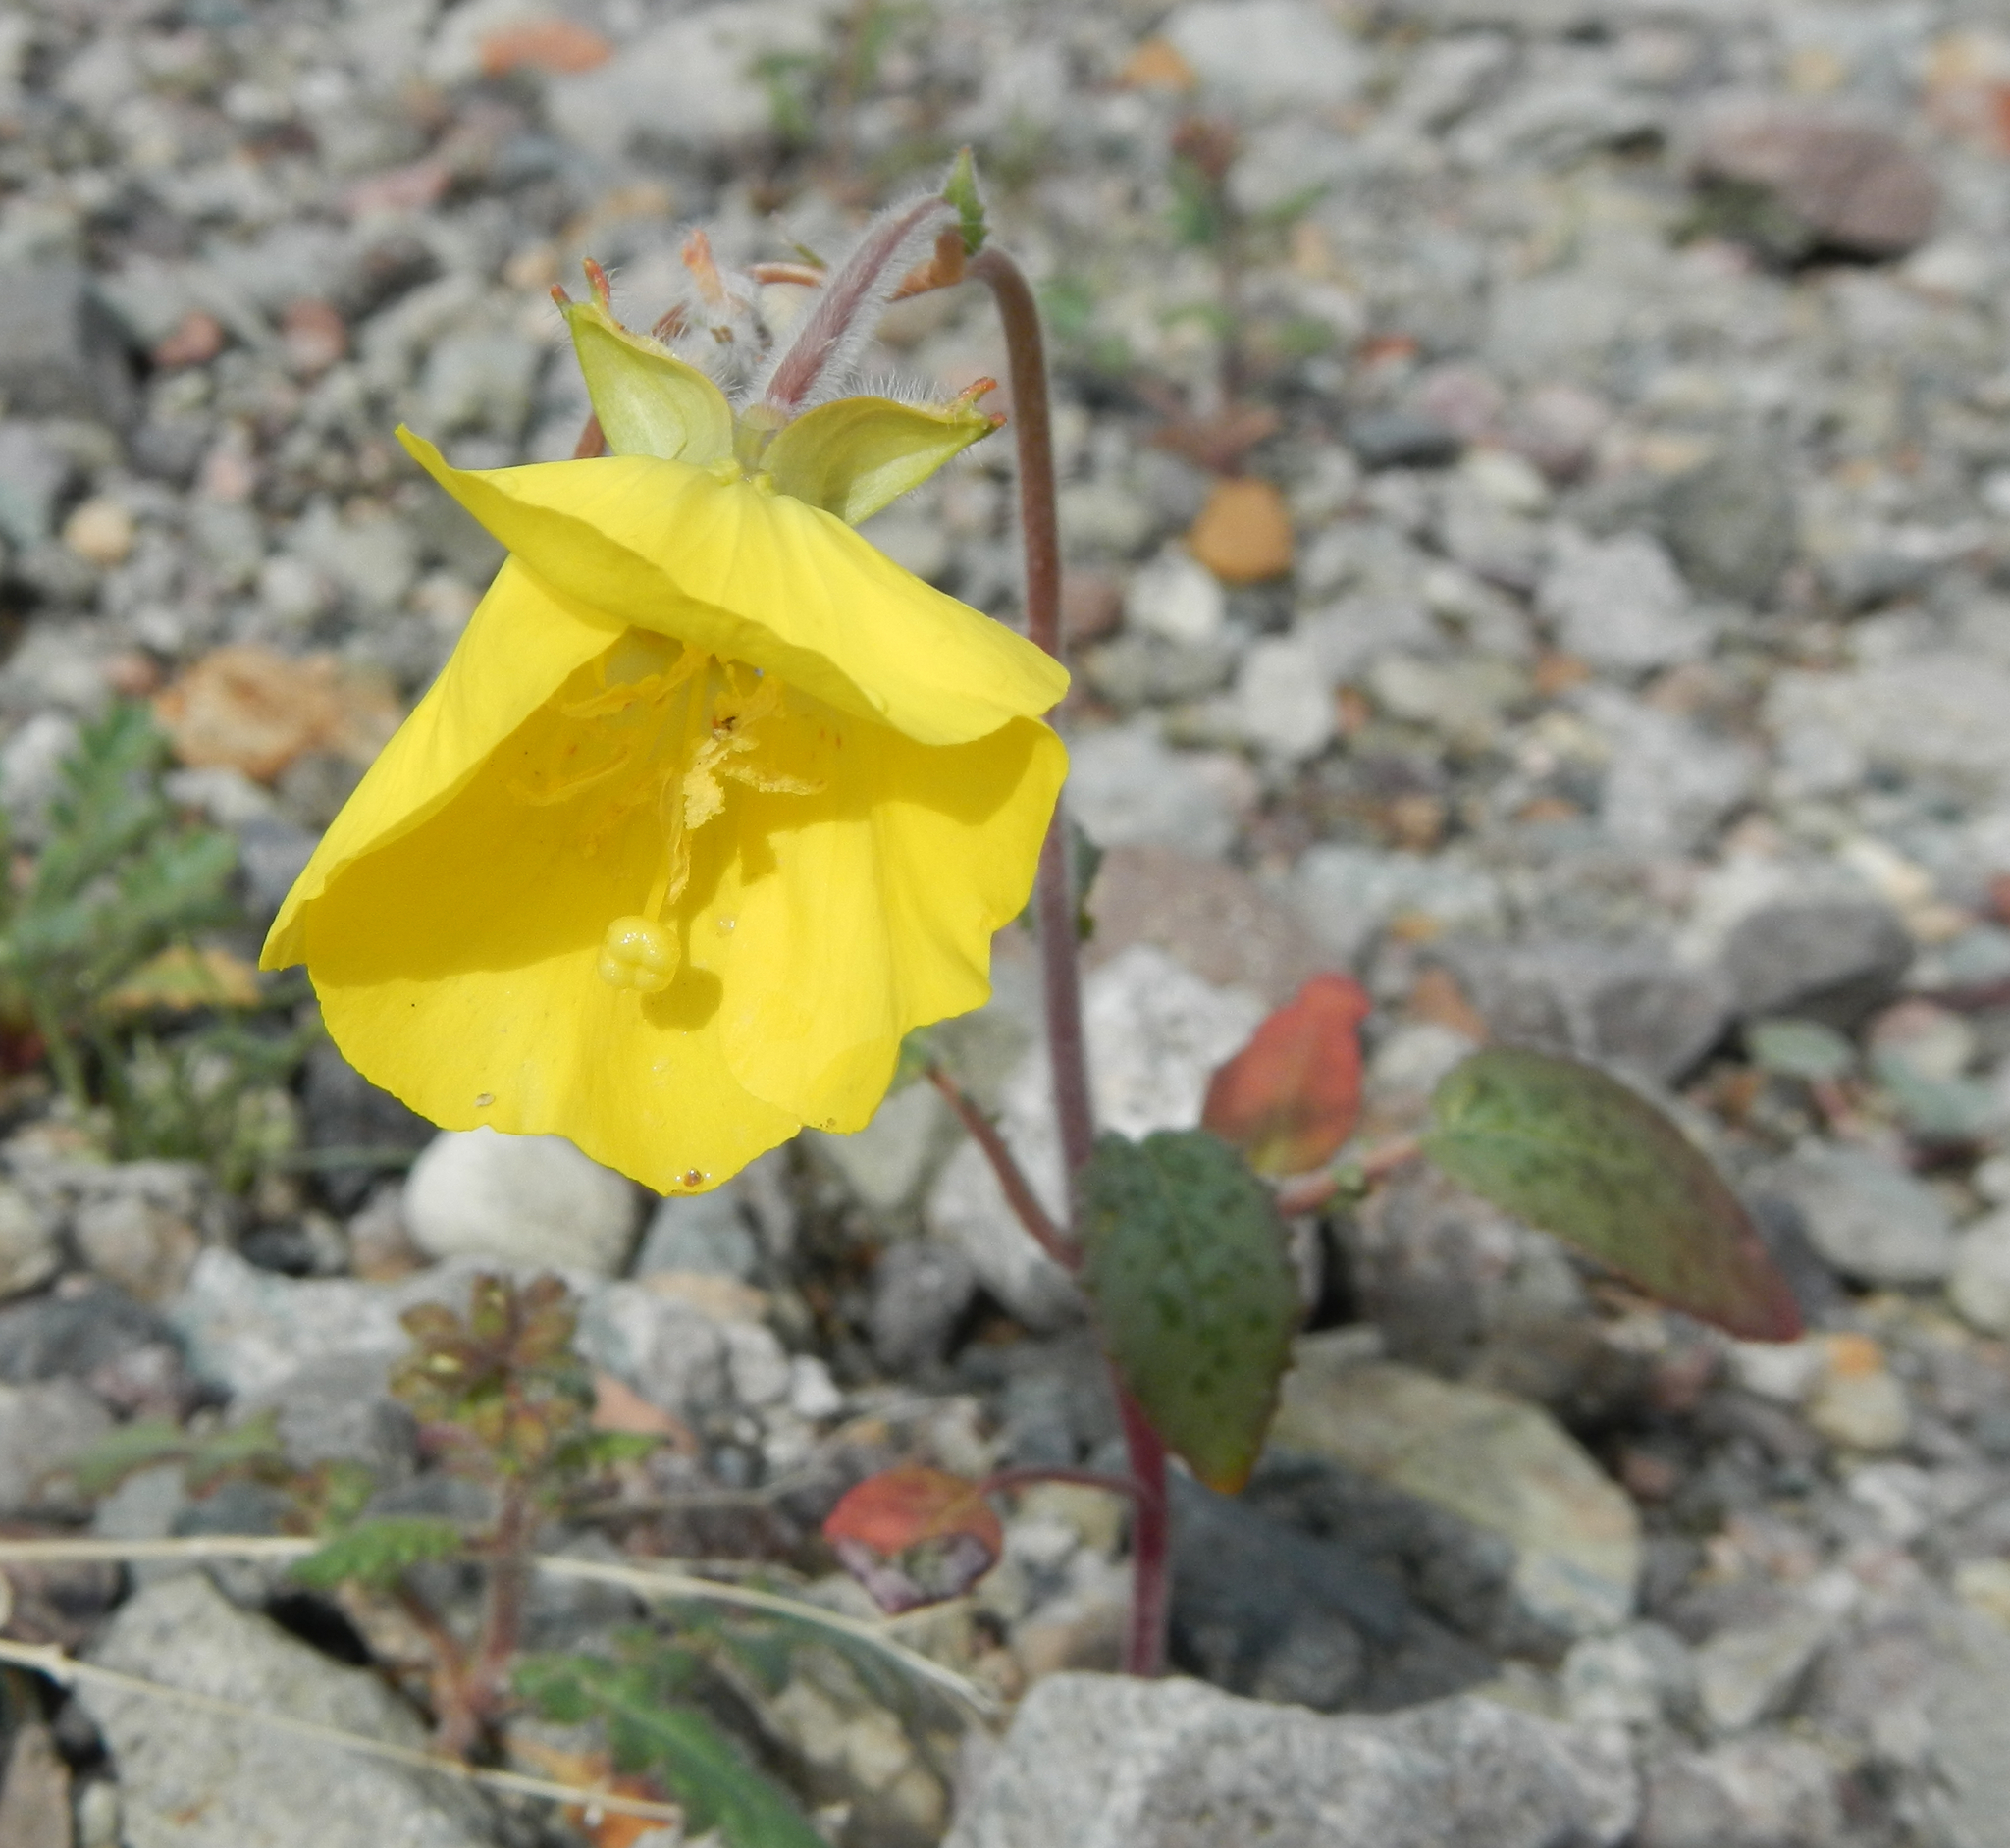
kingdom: Plantae
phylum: Tracheophyta
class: Magnoliopsida
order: Myrtales
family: Onagraceae
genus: Chylismia
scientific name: Chylismia brevipes
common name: Yellow cups
